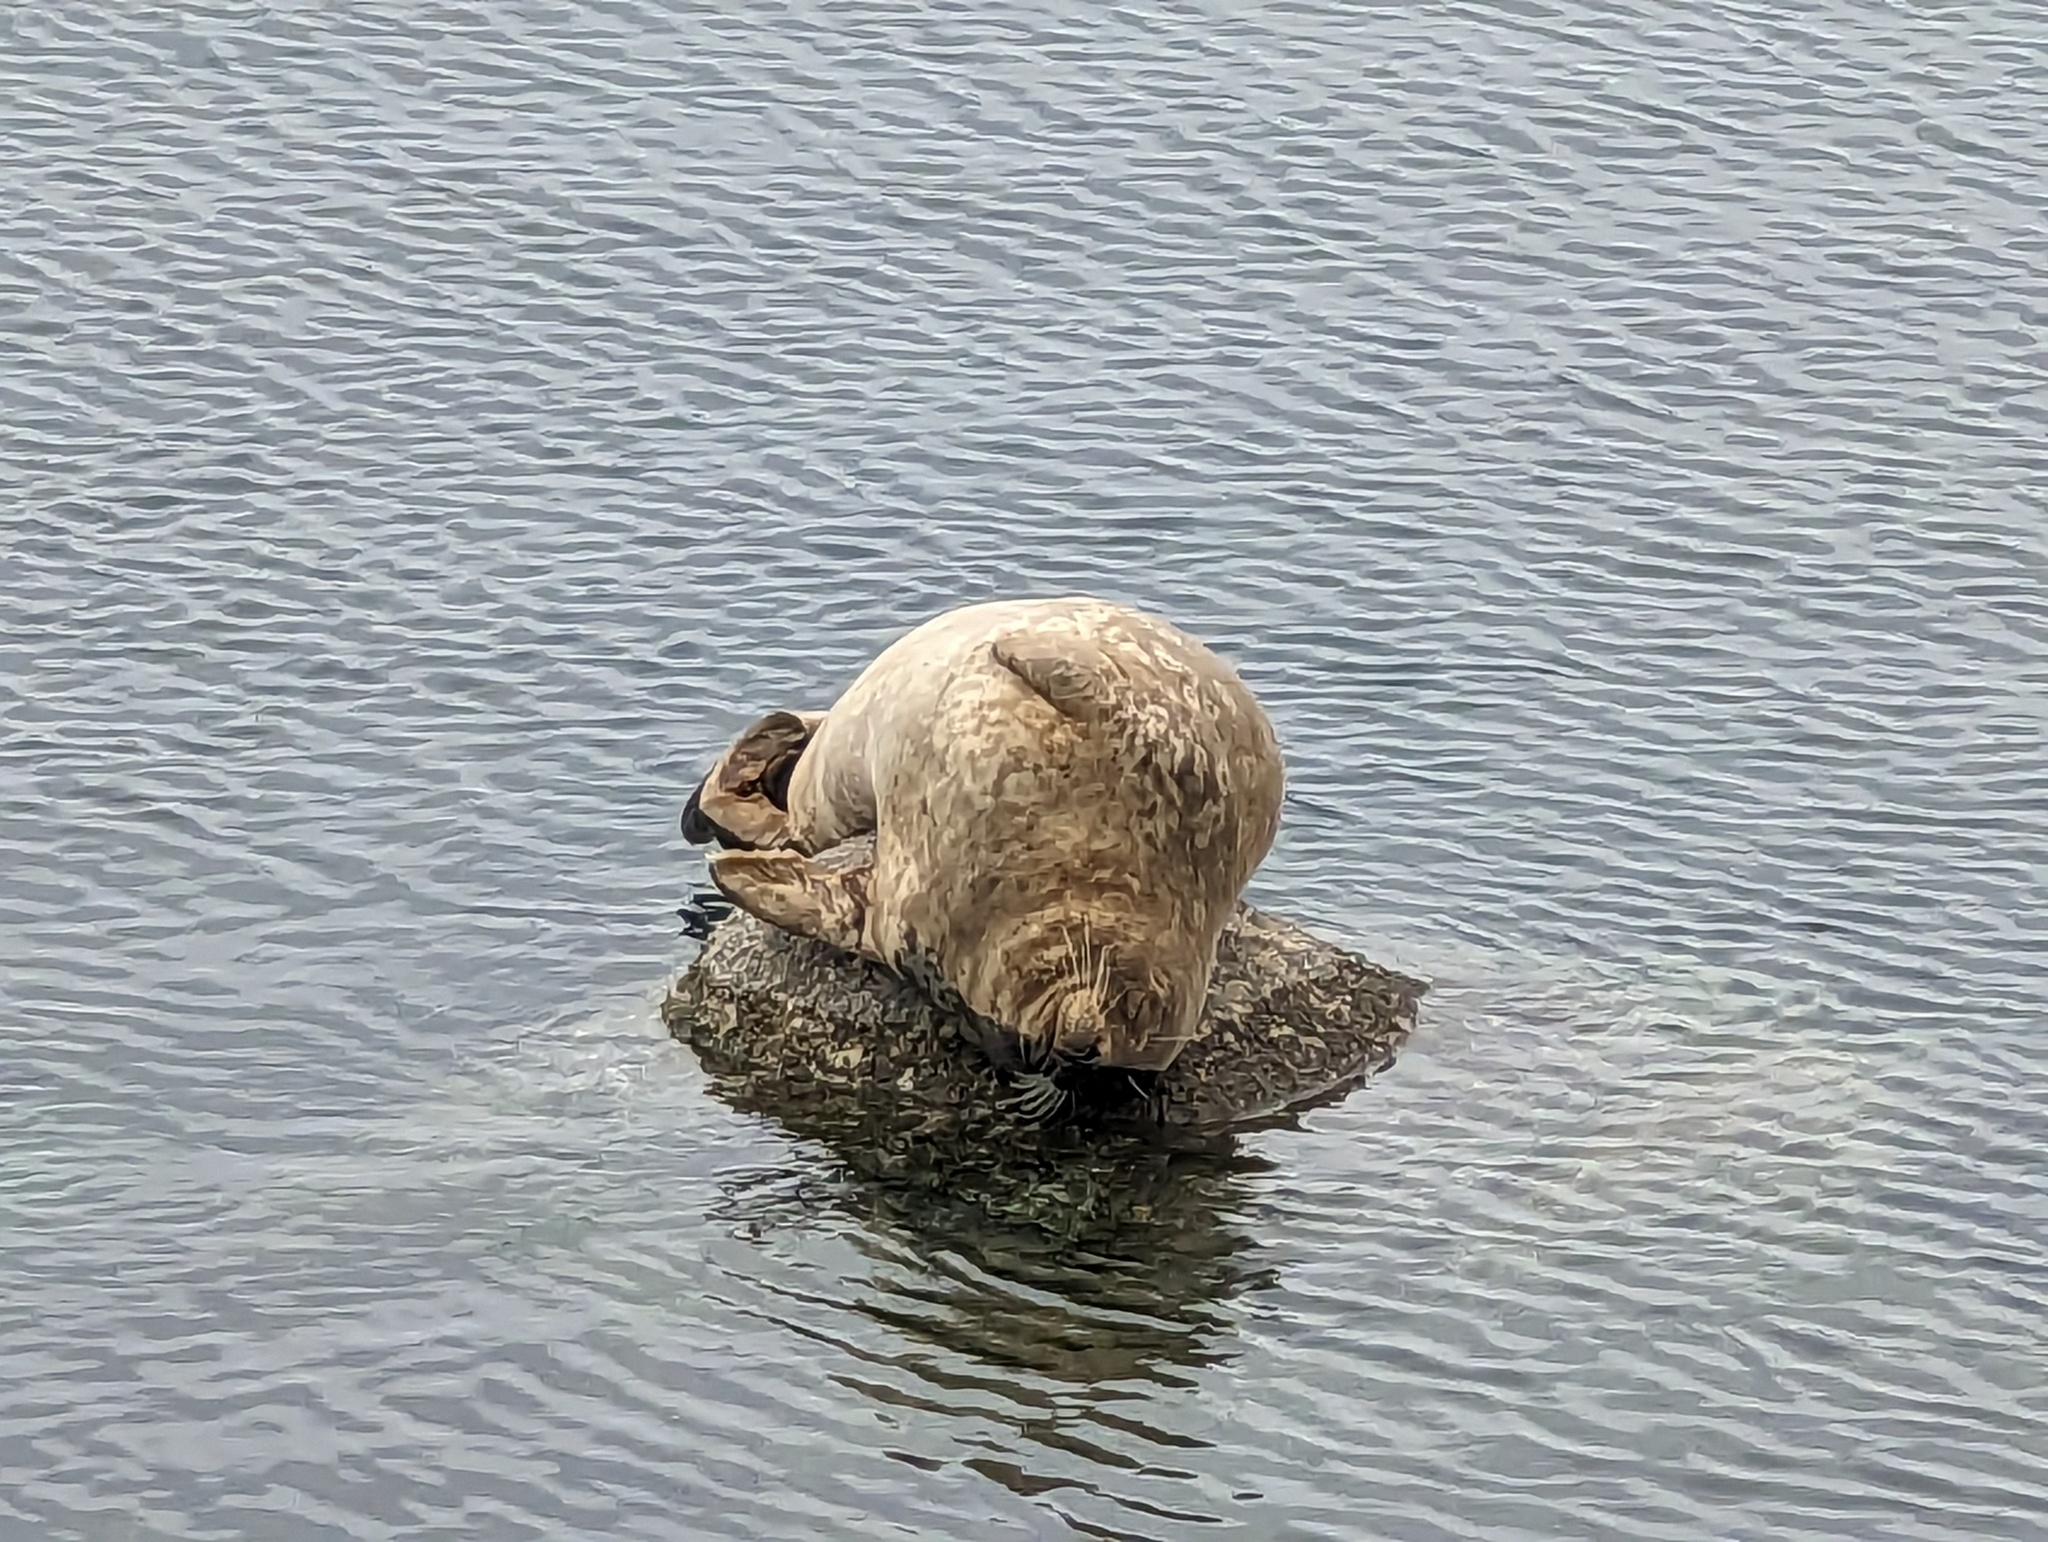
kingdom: Animalia
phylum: Chordata
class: Mammalia
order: Carnivora
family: Phocidae
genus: Phoca
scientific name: Phoca vitulina
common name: Harbor seal
